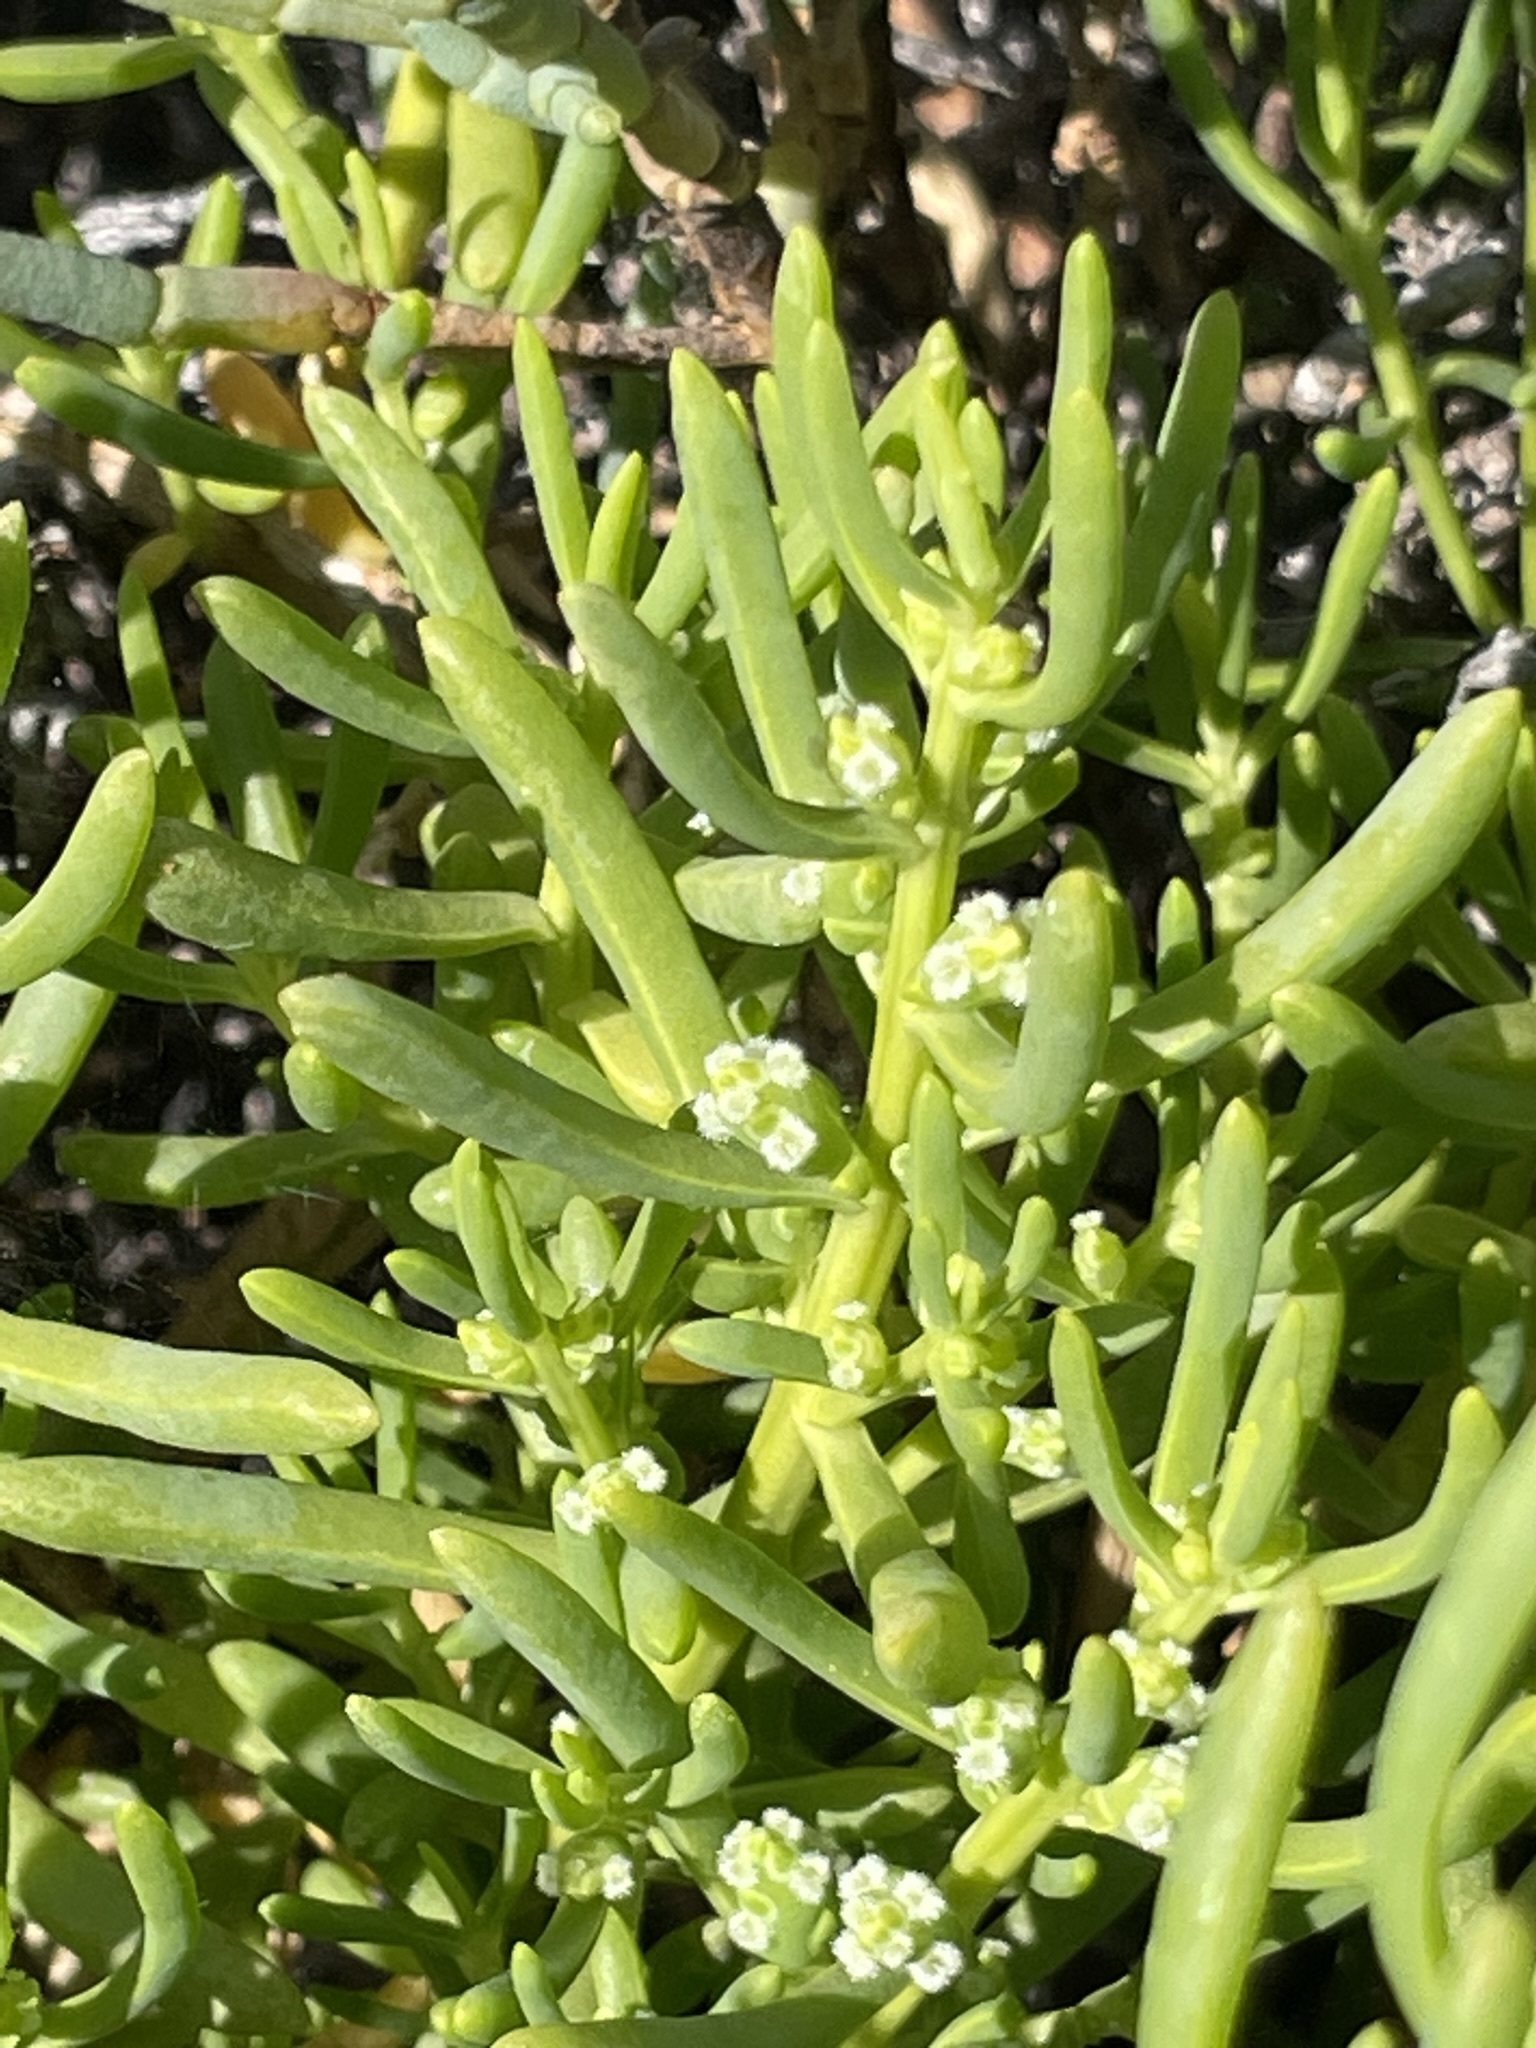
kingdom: Plantae
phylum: Tracheophyta
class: Magnoliopsida
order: Brassicales
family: Bataceae
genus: Batis
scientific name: Batis maritima
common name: Turtleweed
